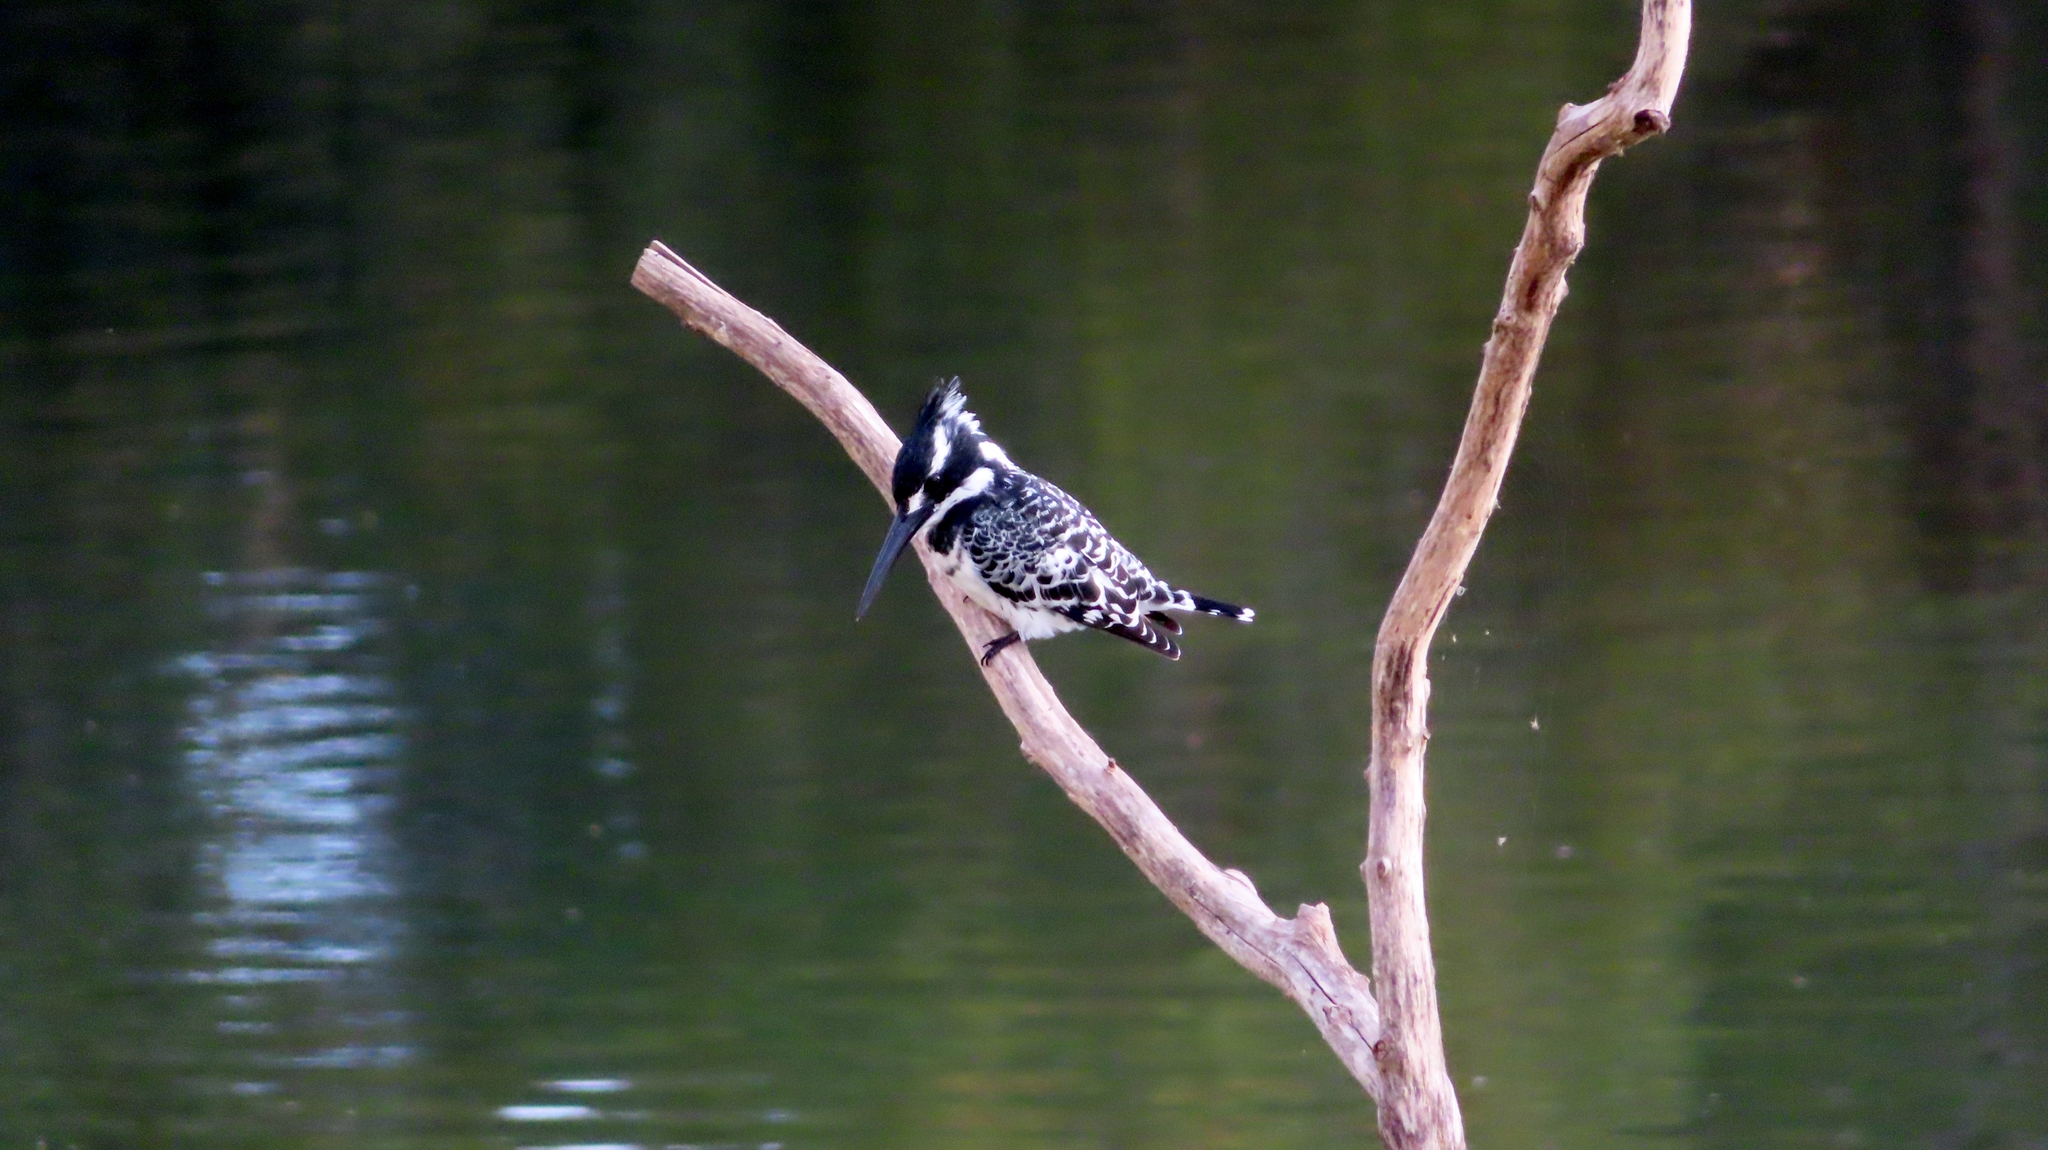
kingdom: Animalia
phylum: Chordata
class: Aves
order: Coraciiformes
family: Alcedinidae
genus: Ceryle
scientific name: Ceryle rudis
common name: Pied kingfisher
